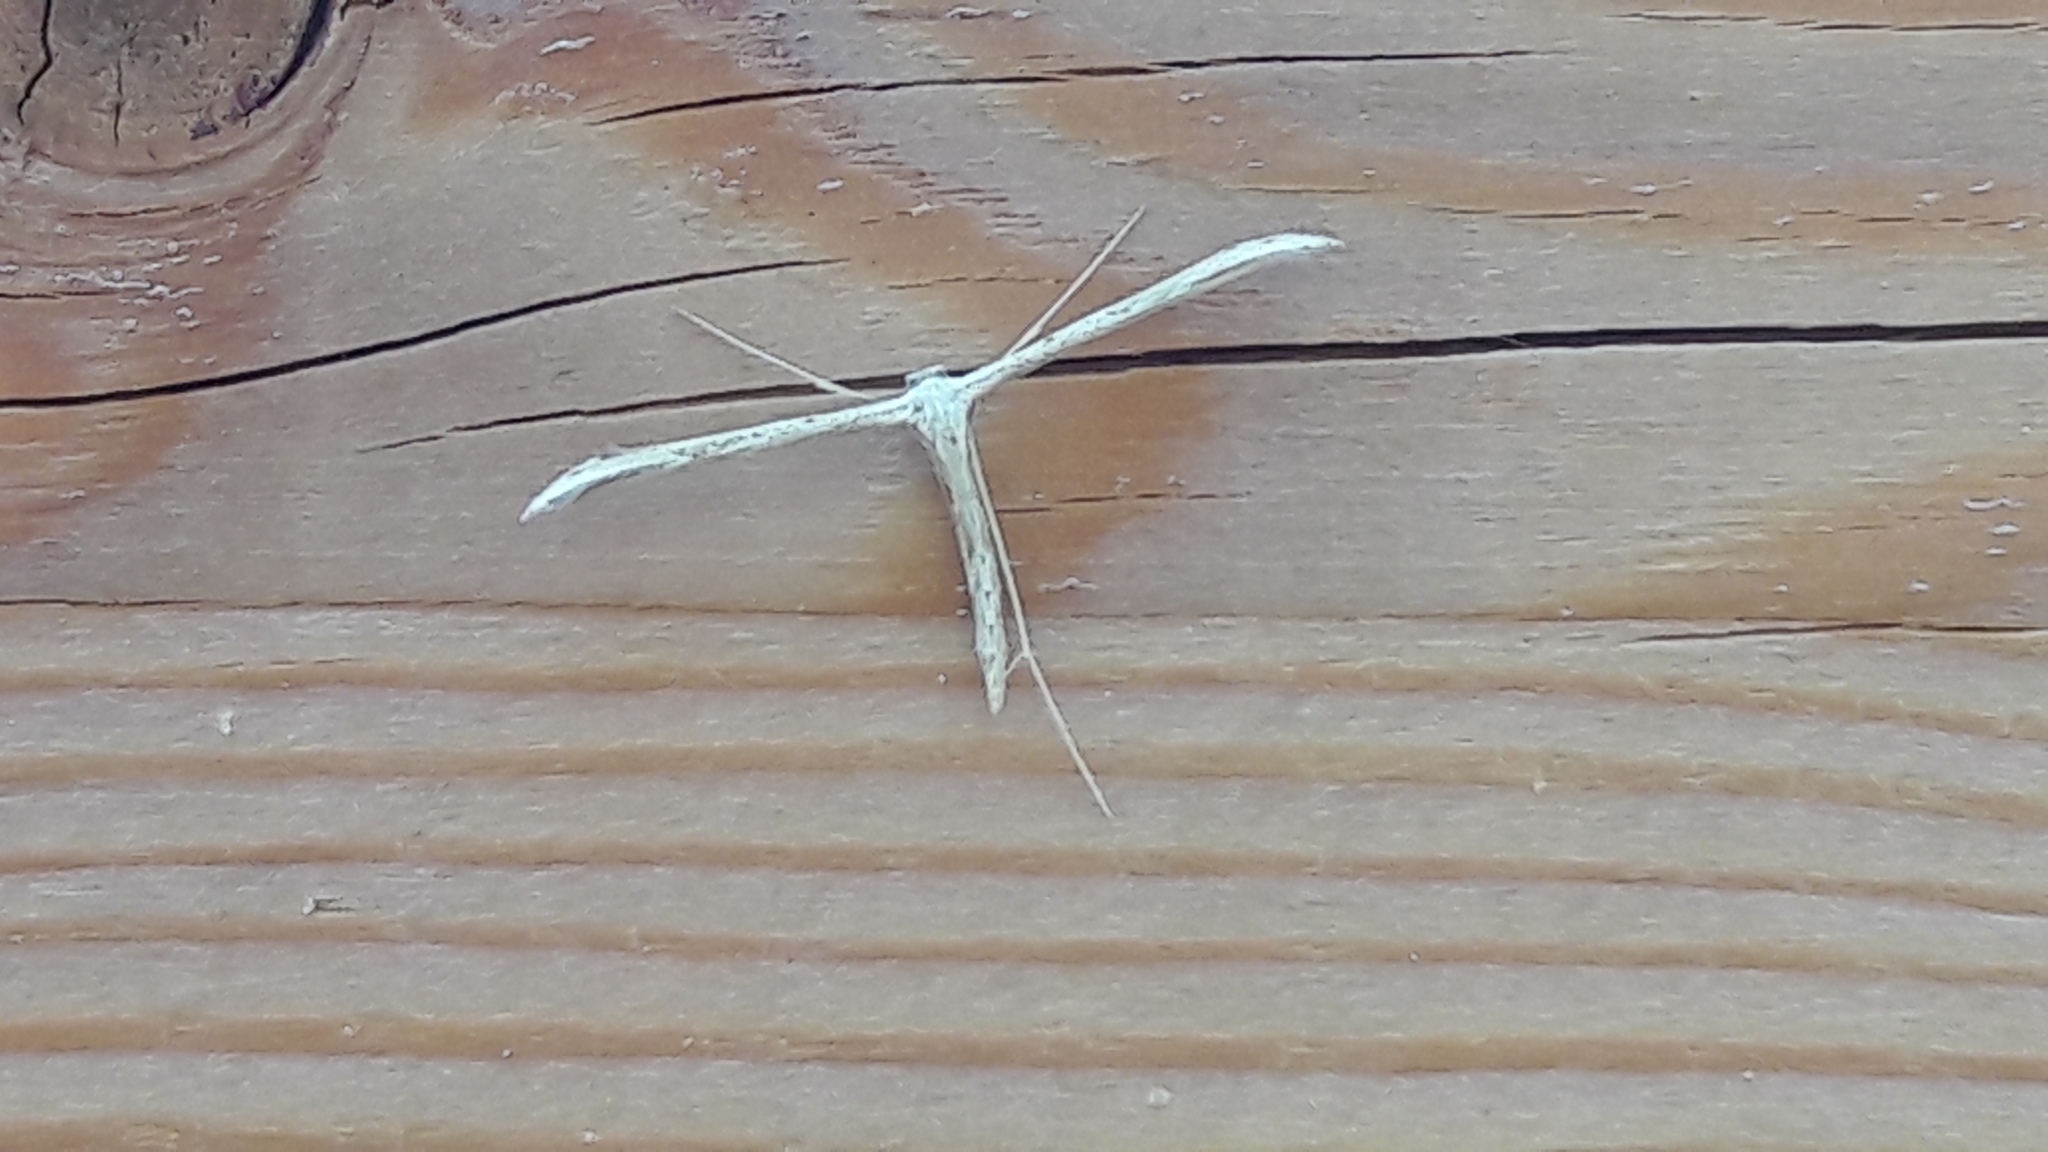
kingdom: Animalia
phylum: Arthropoda
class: Insecta
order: Lepidoptera
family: Pterophoridae
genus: Pterophorus
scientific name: Pterophorus pentadactyla
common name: White plume moth
